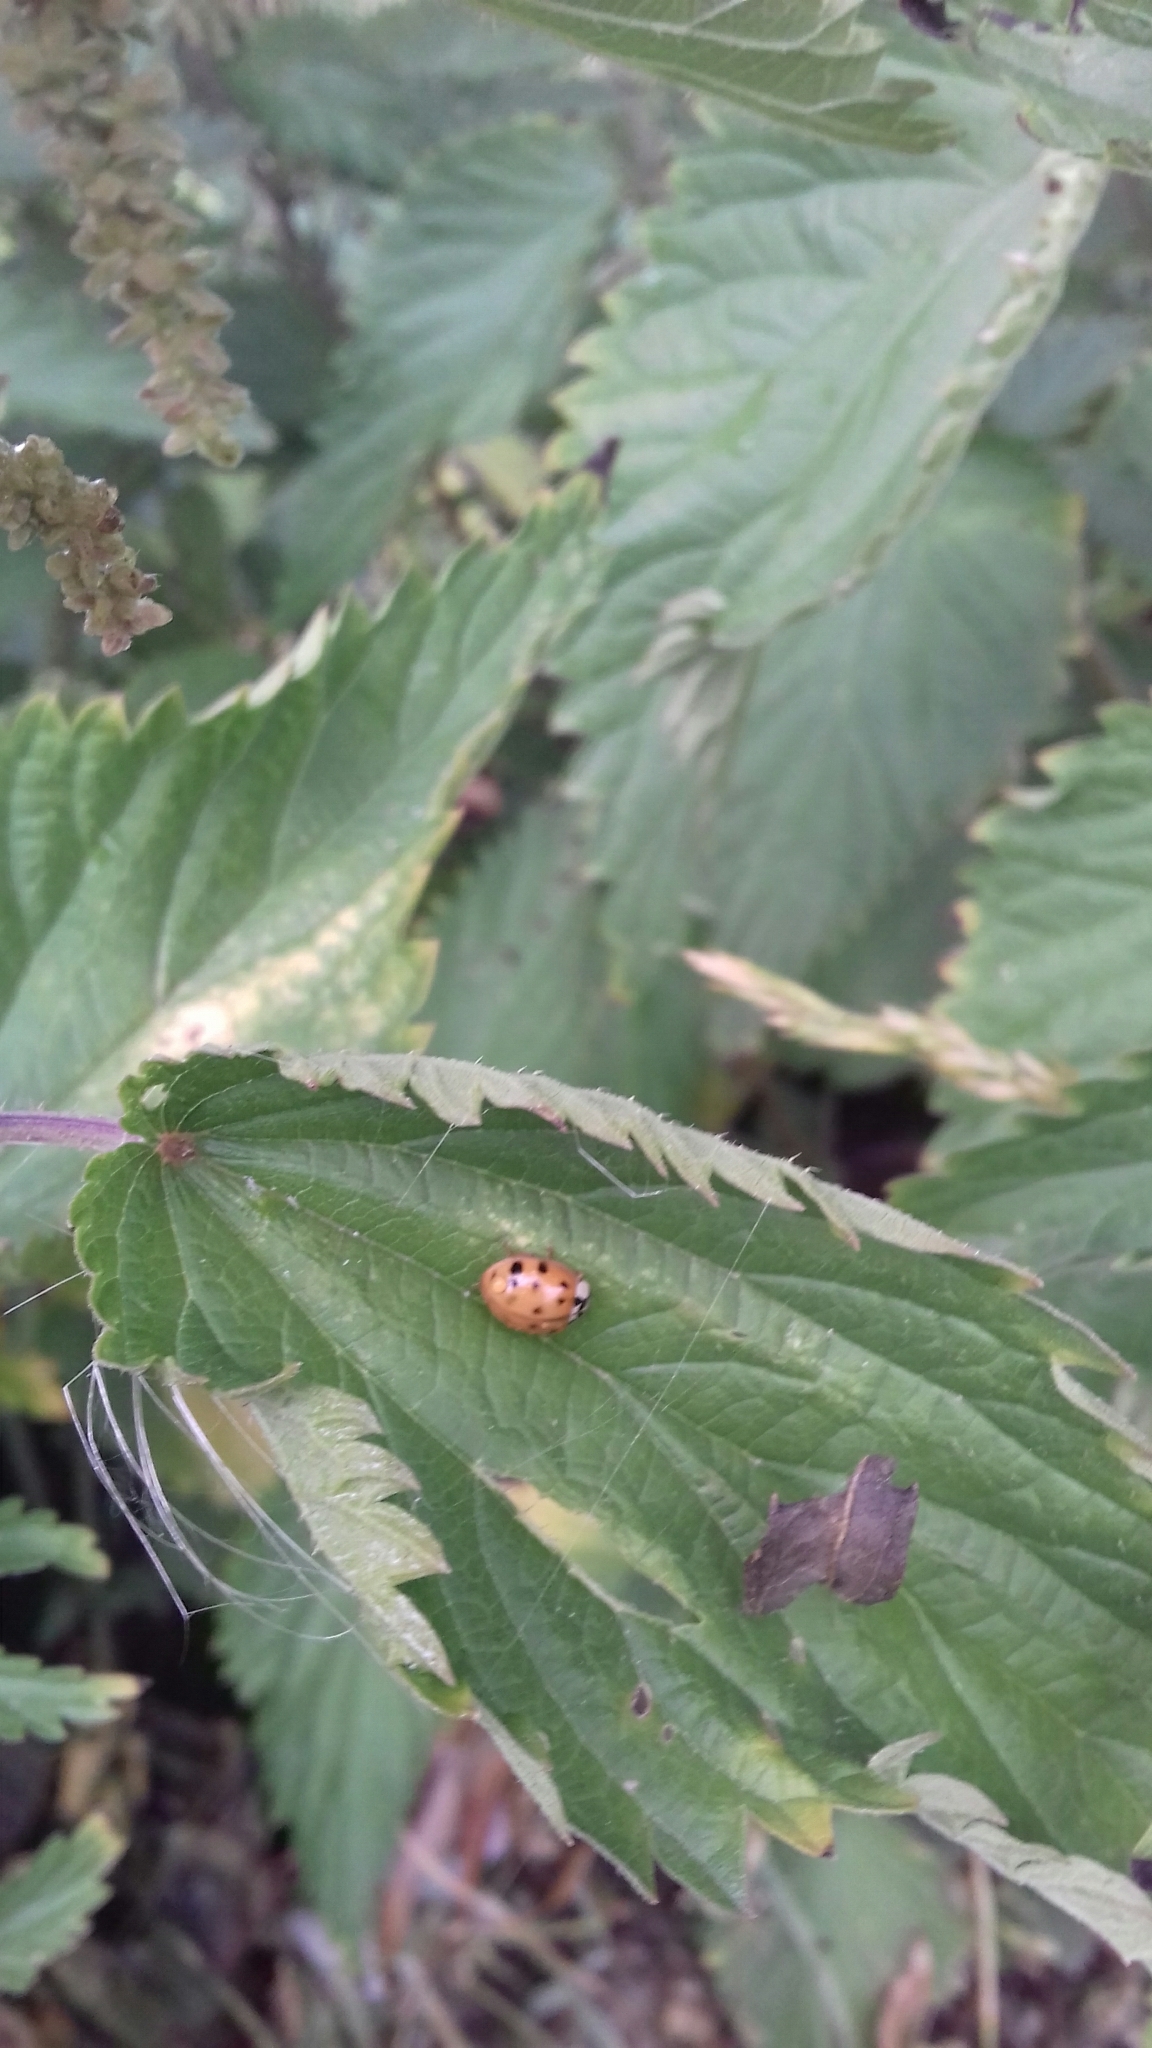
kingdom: Animalia
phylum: Arthropoda
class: Insecta
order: Coleoptera
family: Coccinellidae
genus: Harmonia
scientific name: Harmonia axyridis
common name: Harlequin ladybird
